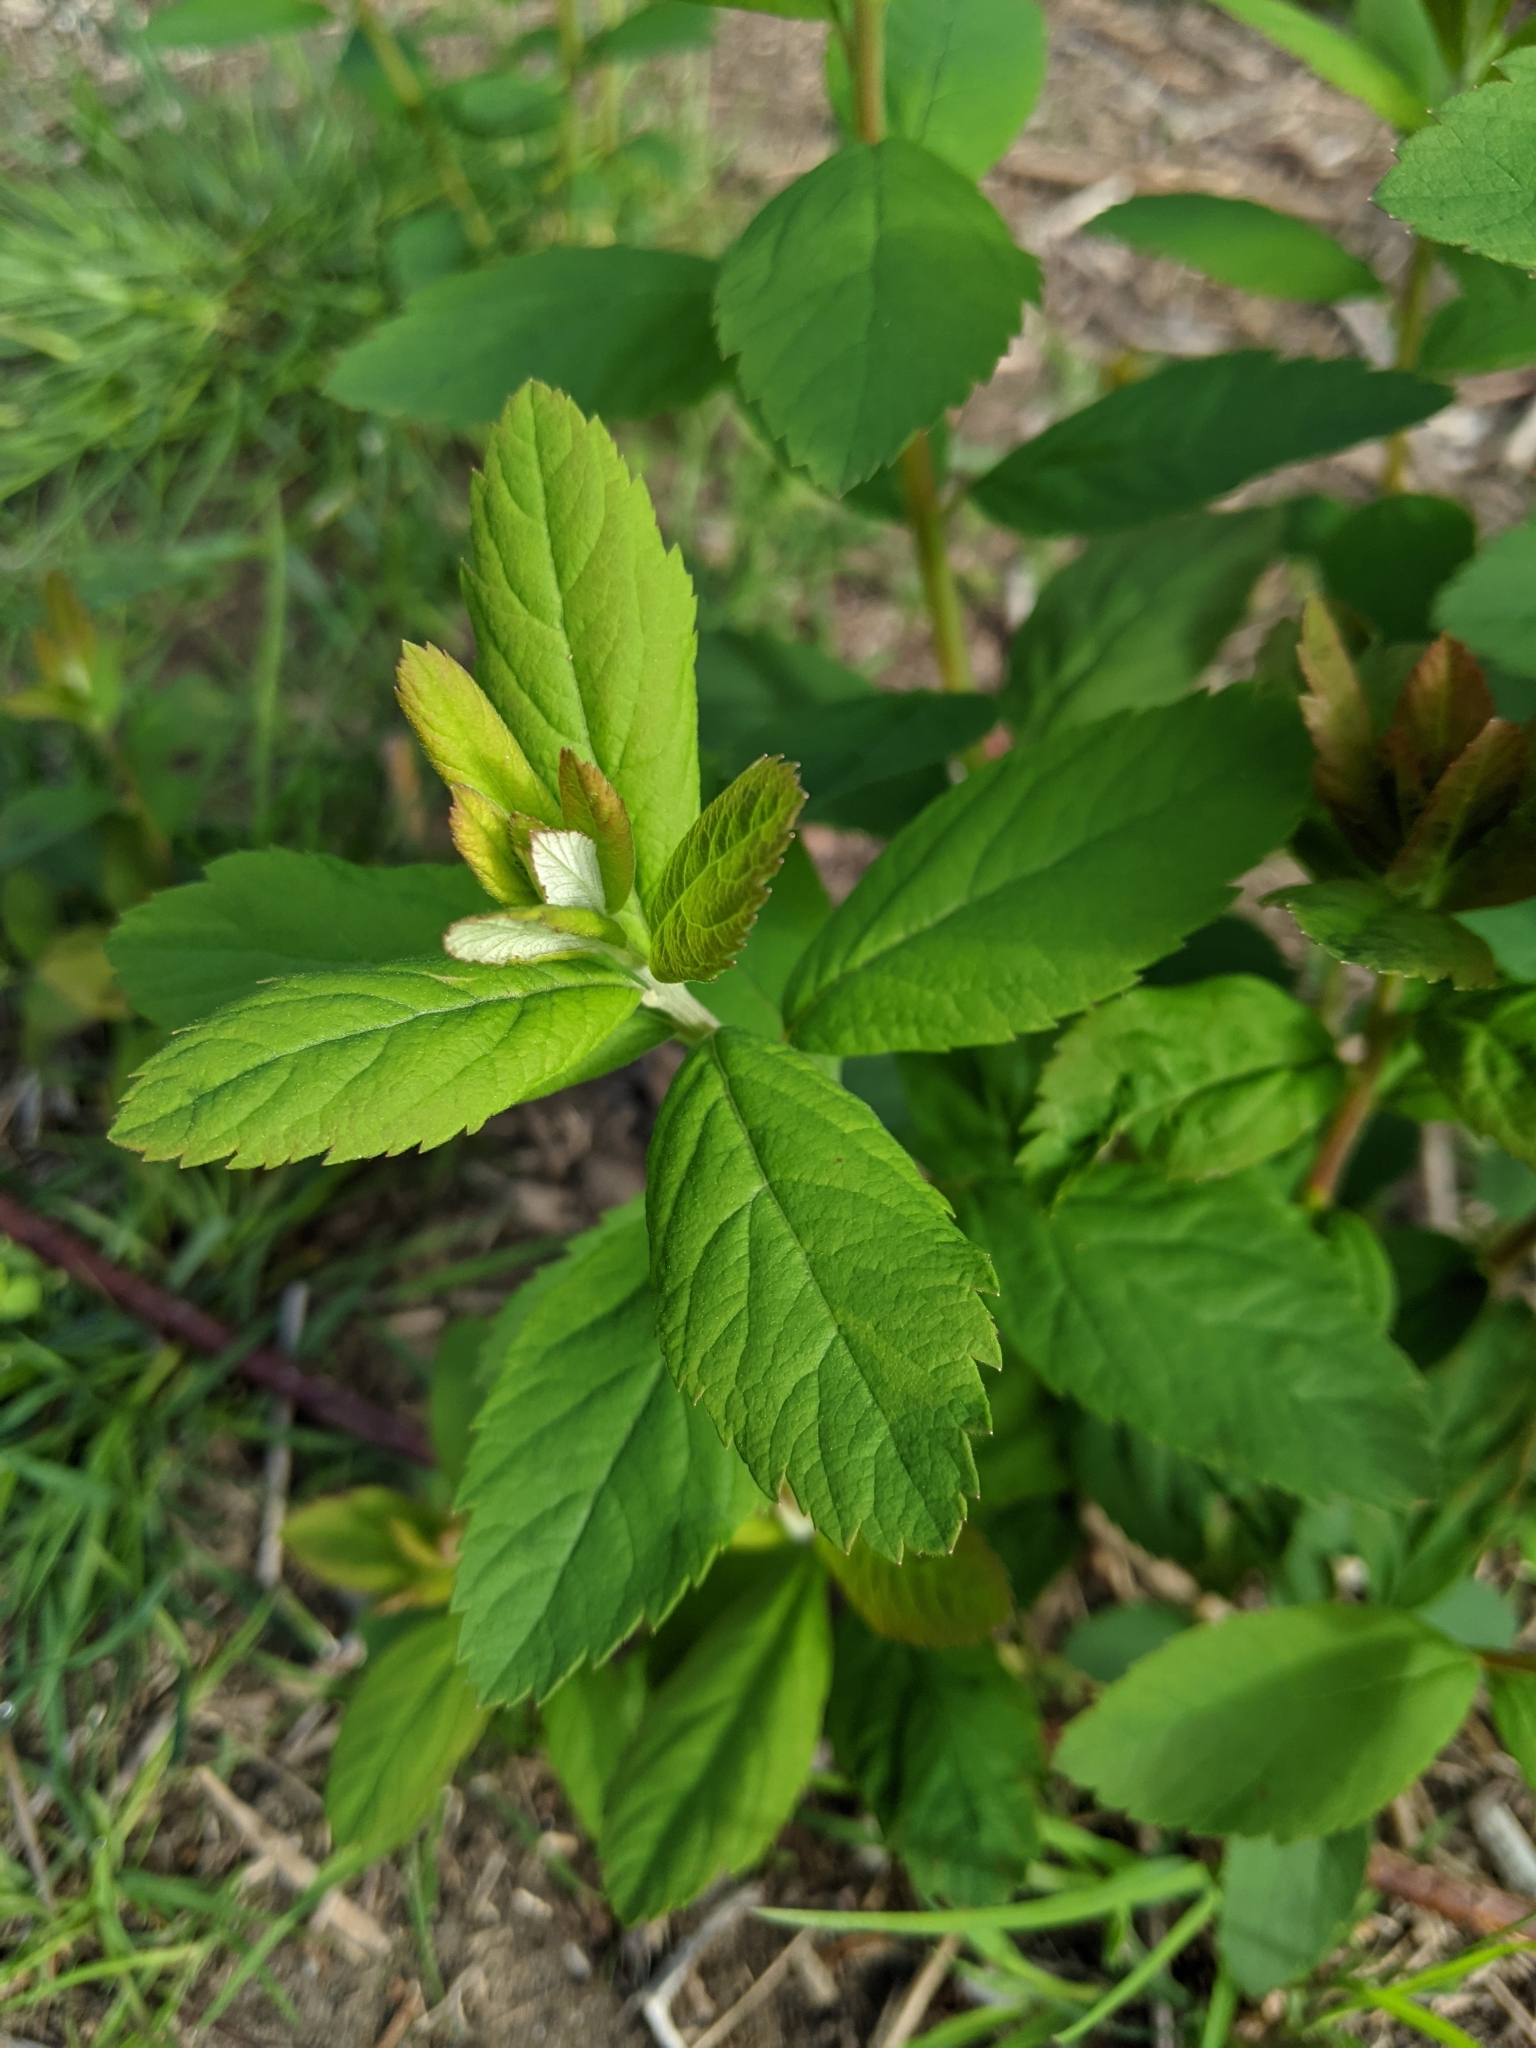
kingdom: Plantae
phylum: Tracheophyta
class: Magnoliopsida
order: Rosales
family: Rosaceae
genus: Spiraea
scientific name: Spiraea douglasii
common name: Steeplebush
